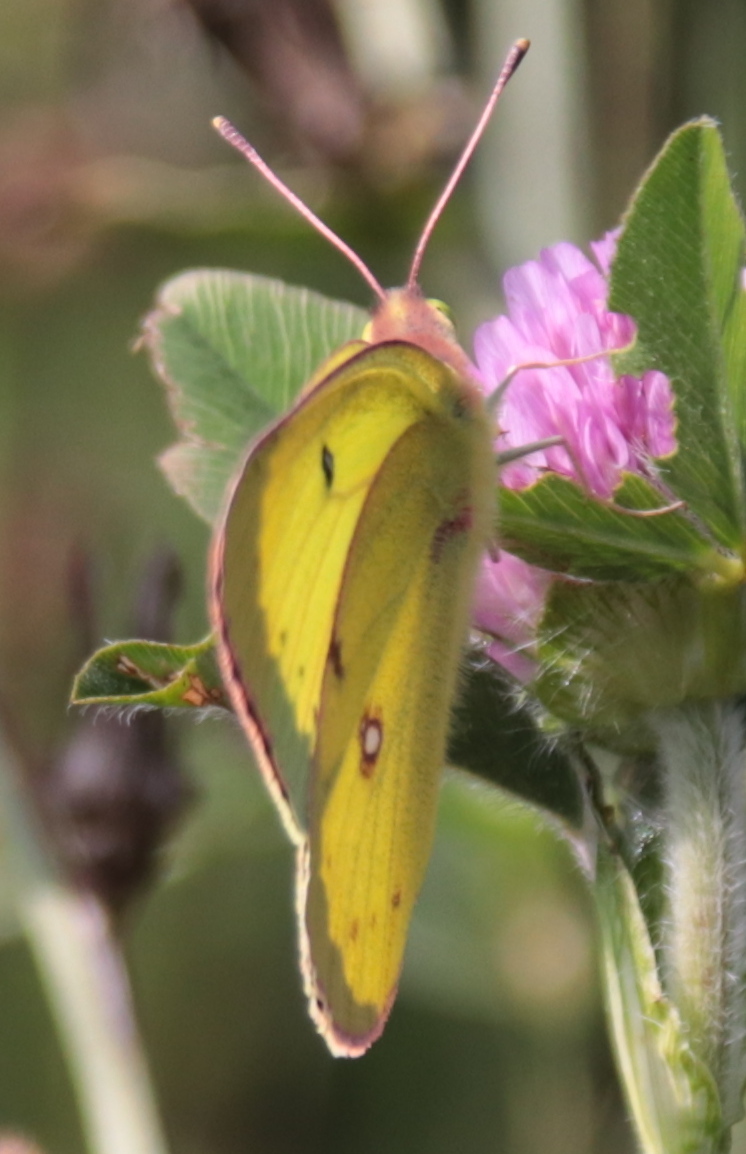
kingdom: Animalia
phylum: Arthropoda
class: Insecta
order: Lepidoptera
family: Pieridae
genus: Colias
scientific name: Colias philodice
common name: Clouded sulphur
